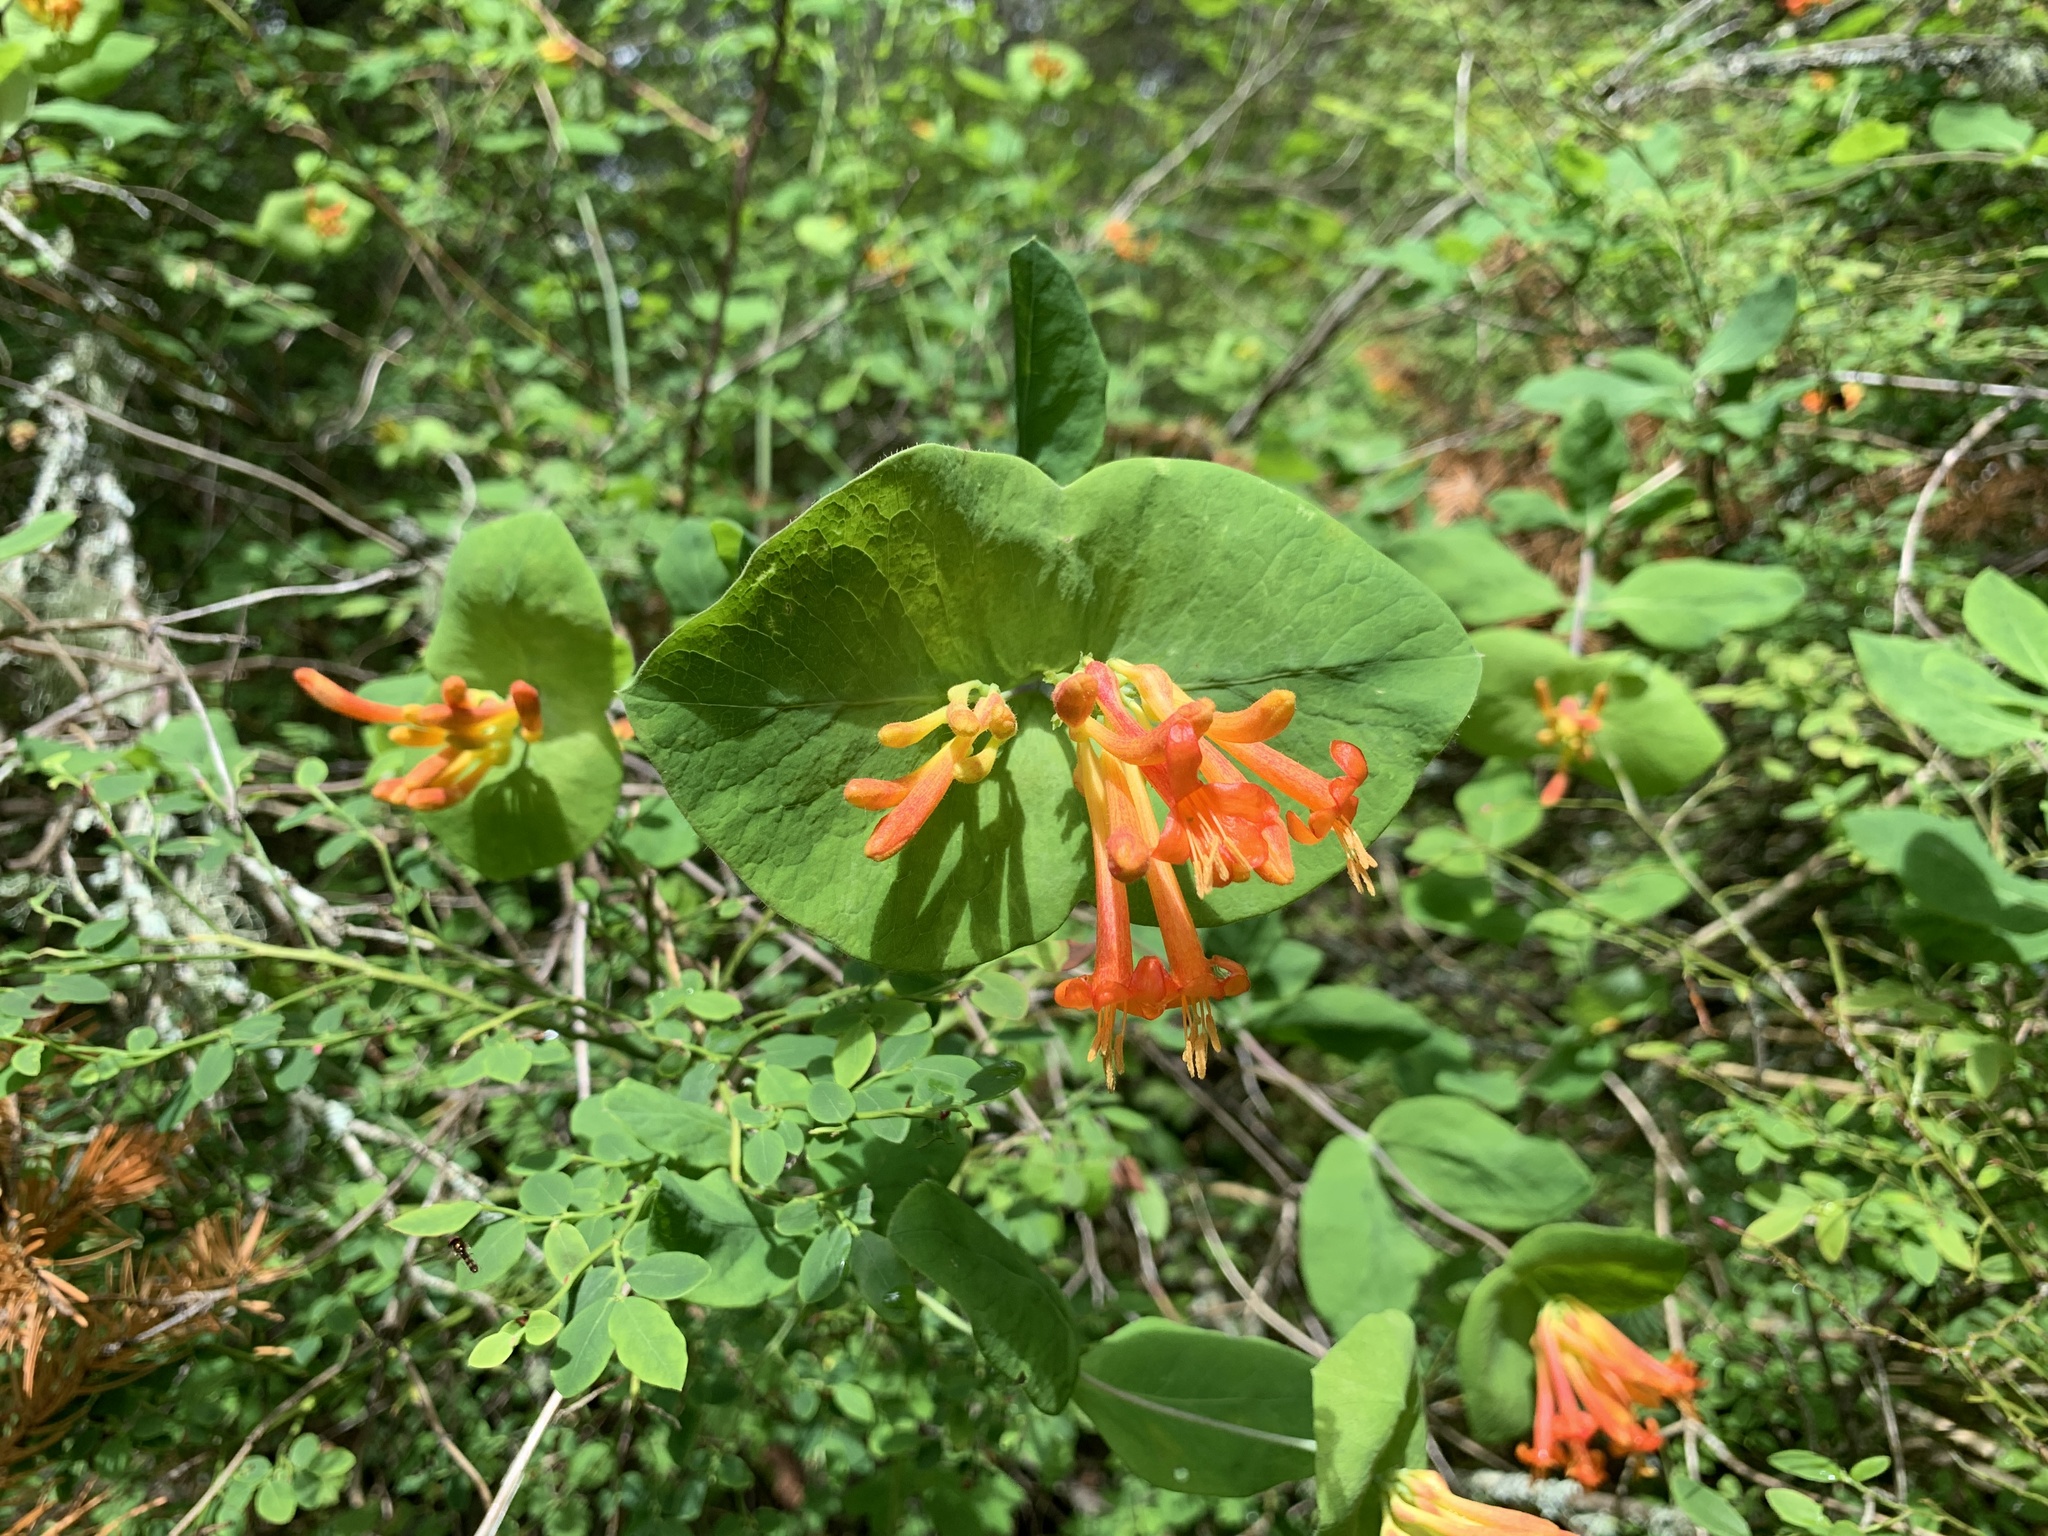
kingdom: Plantae
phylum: Tracheophyta
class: Magnoliopsida
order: Dipsacales
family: Caprifoliaceae
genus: Lonicera
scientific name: Lonicera ciliosa
